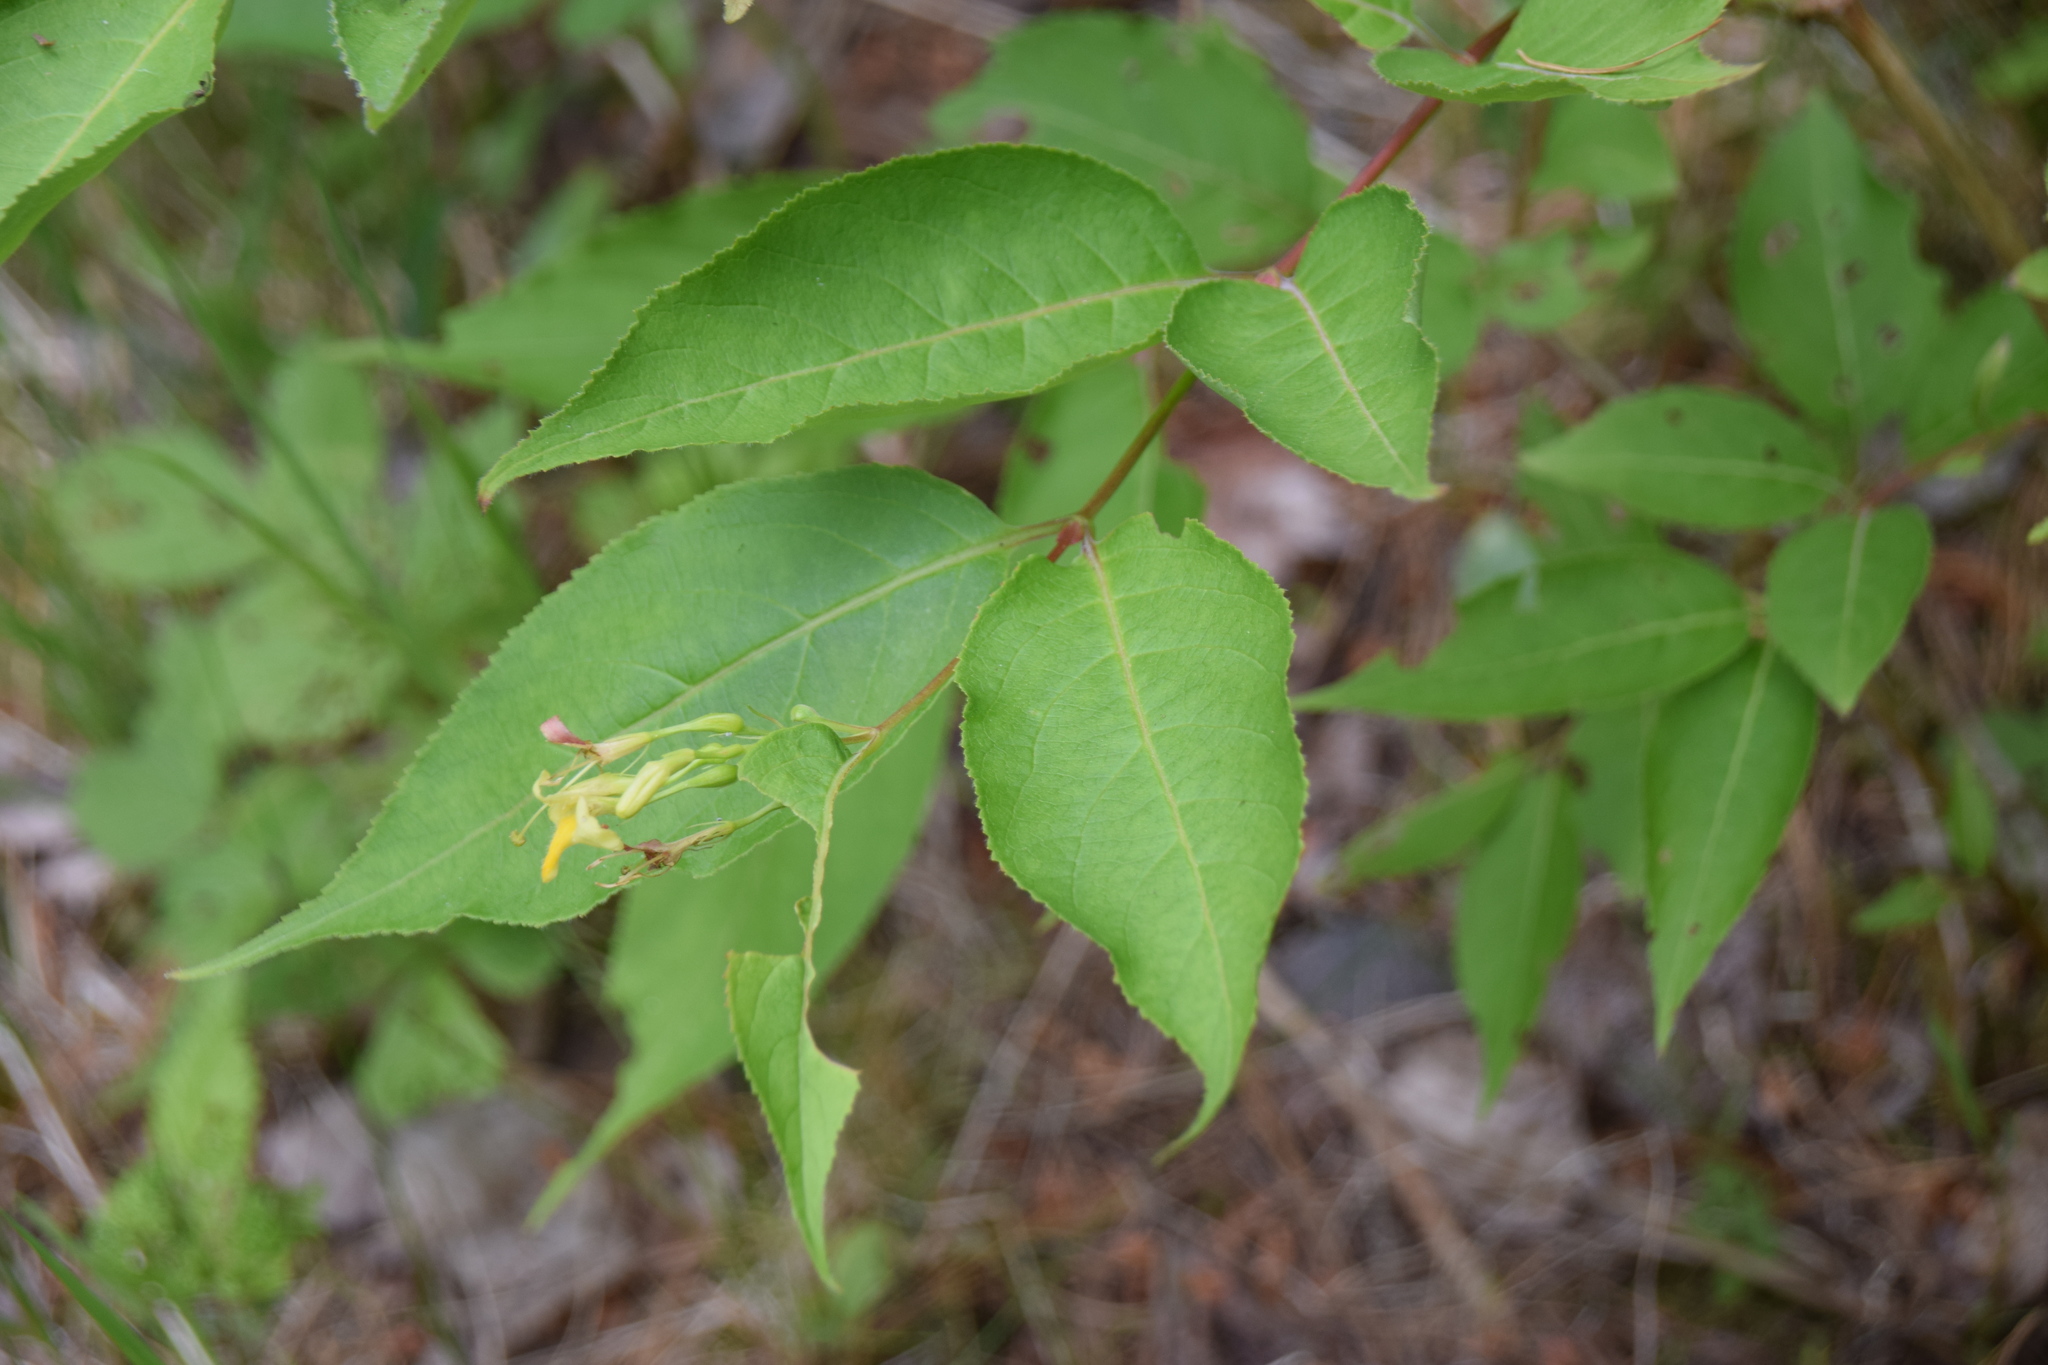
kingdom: Plantae
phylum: Tracheophyta
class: Magnoliopsida
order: Dipsacales
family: Caprifoliaceae
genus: Diervilla
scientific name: Diervilla lonicera
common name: Bush-honeysuckle
